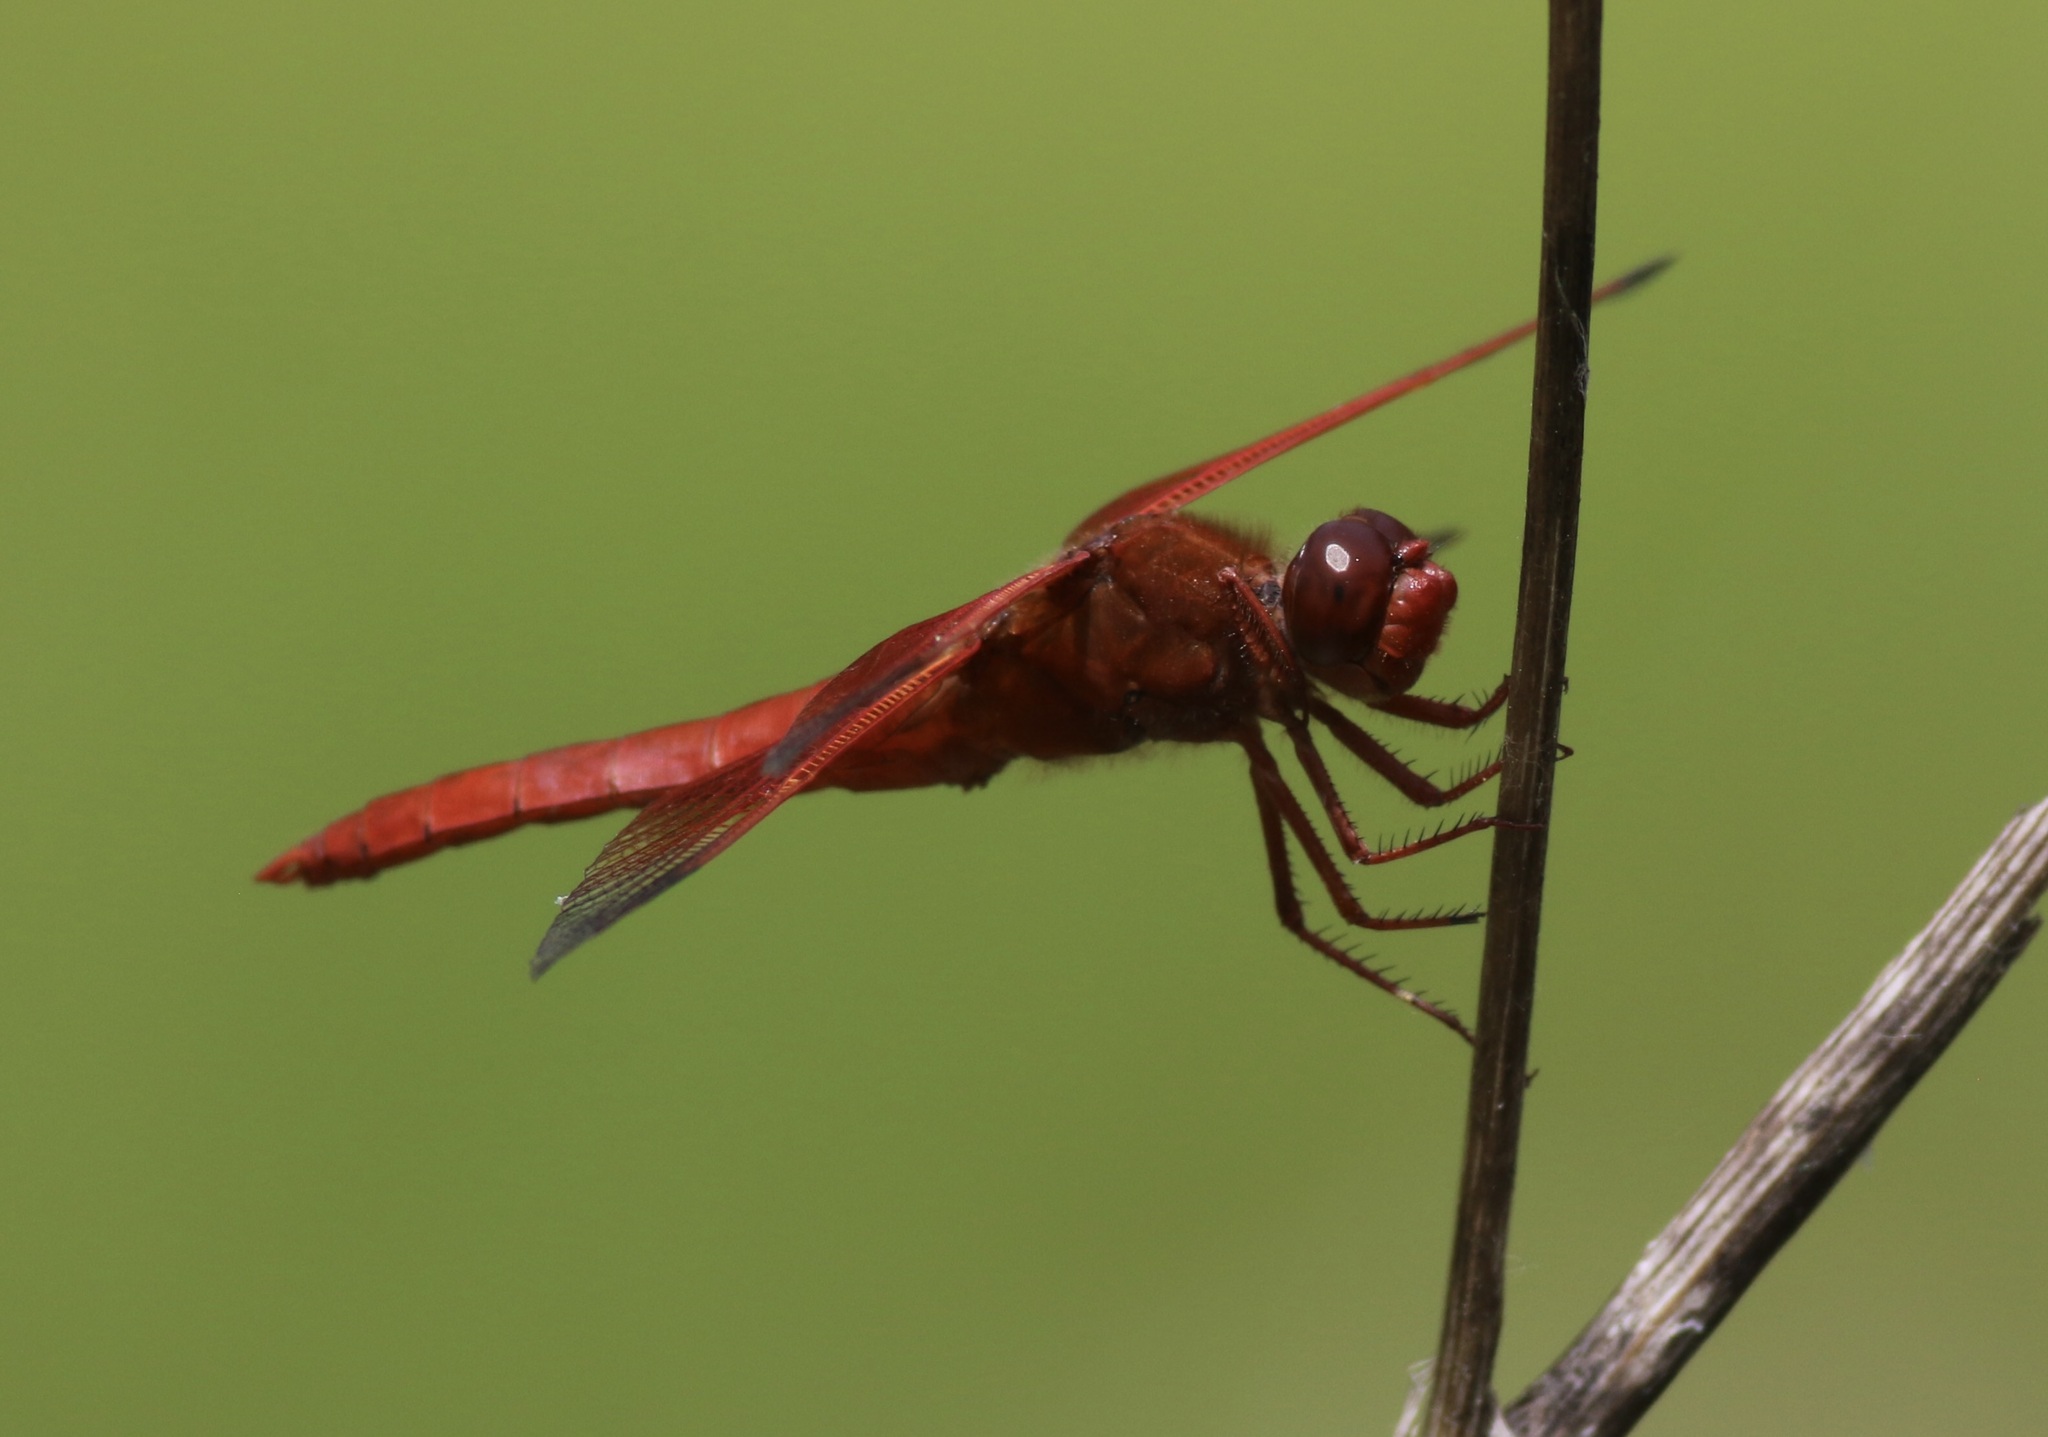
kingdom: Animalia
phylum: Arthropoda
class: Insecta
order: Odonata
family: Libellulidae
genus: Libellula
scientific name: Libellula saturata
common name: Flame skimmer
